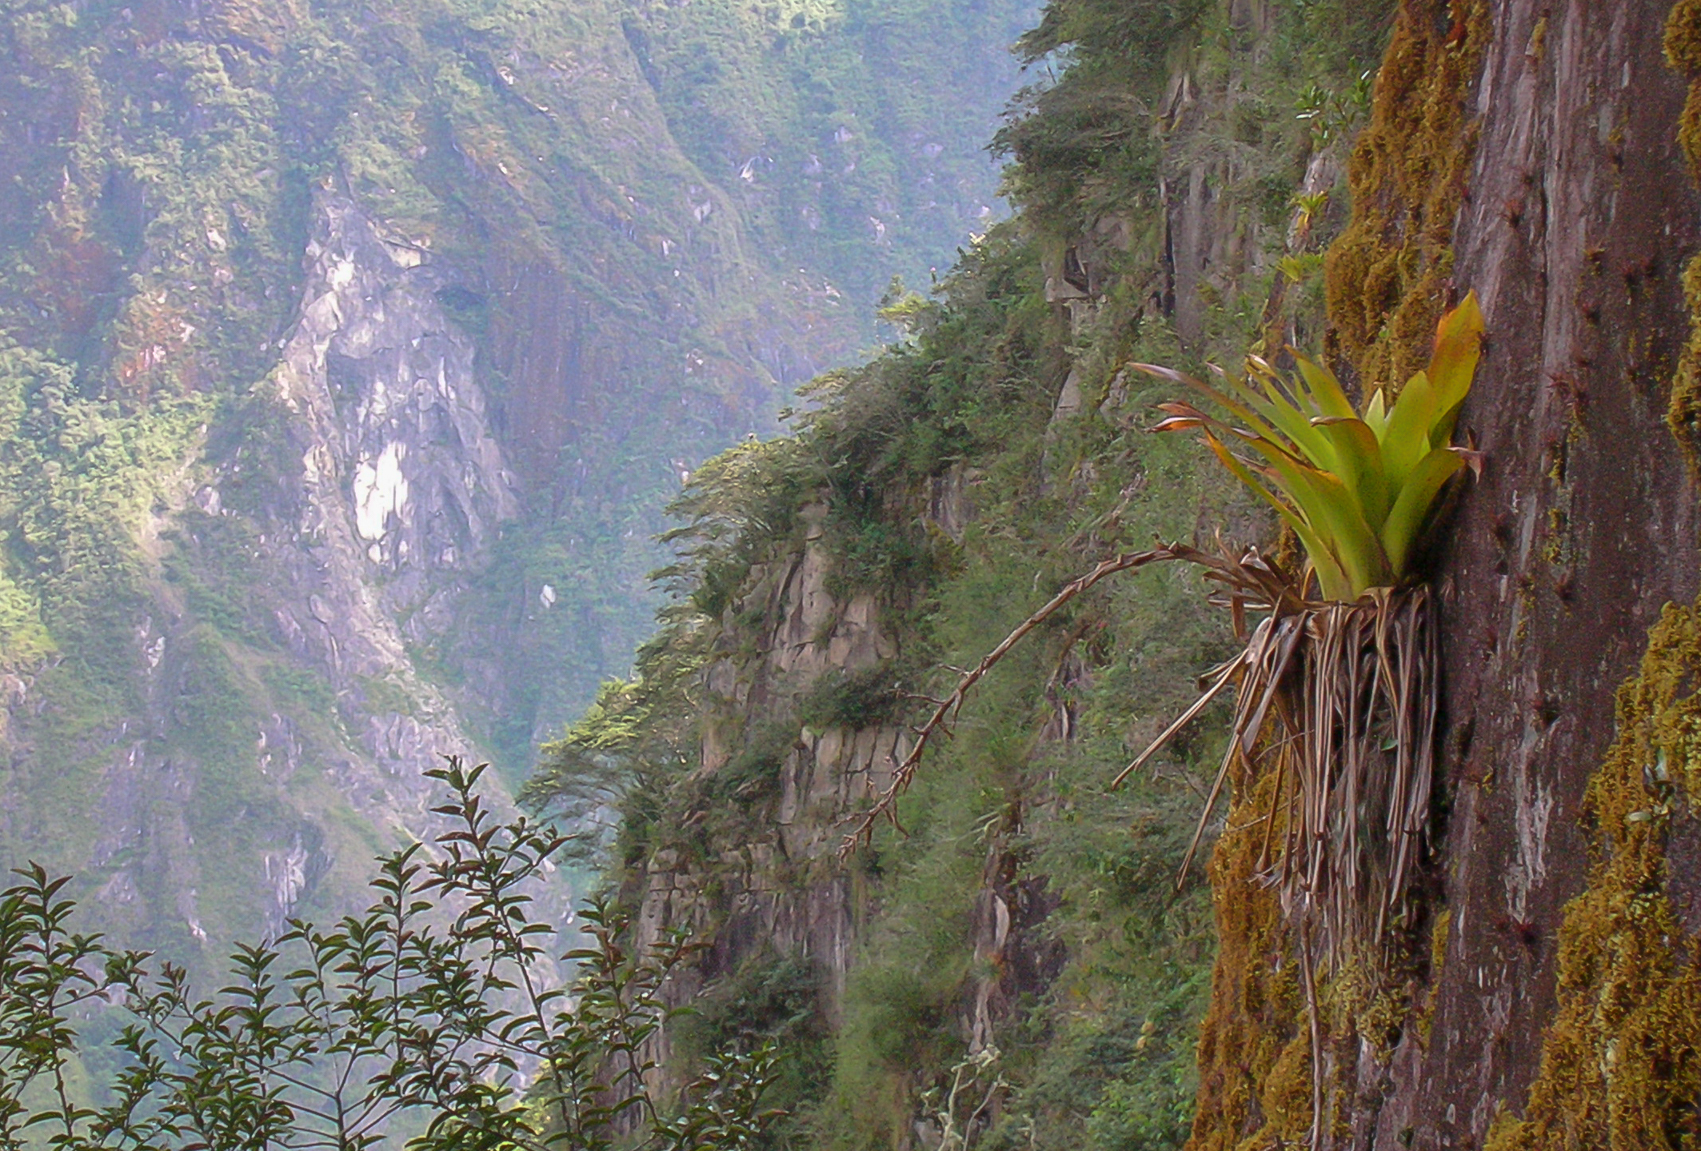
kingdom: Plantae
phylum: Tracheophyta
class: Liliopsida
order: Poales
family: Bromeliaceae
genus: Tillandsia
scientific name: Tillandsia machupicchuensis
